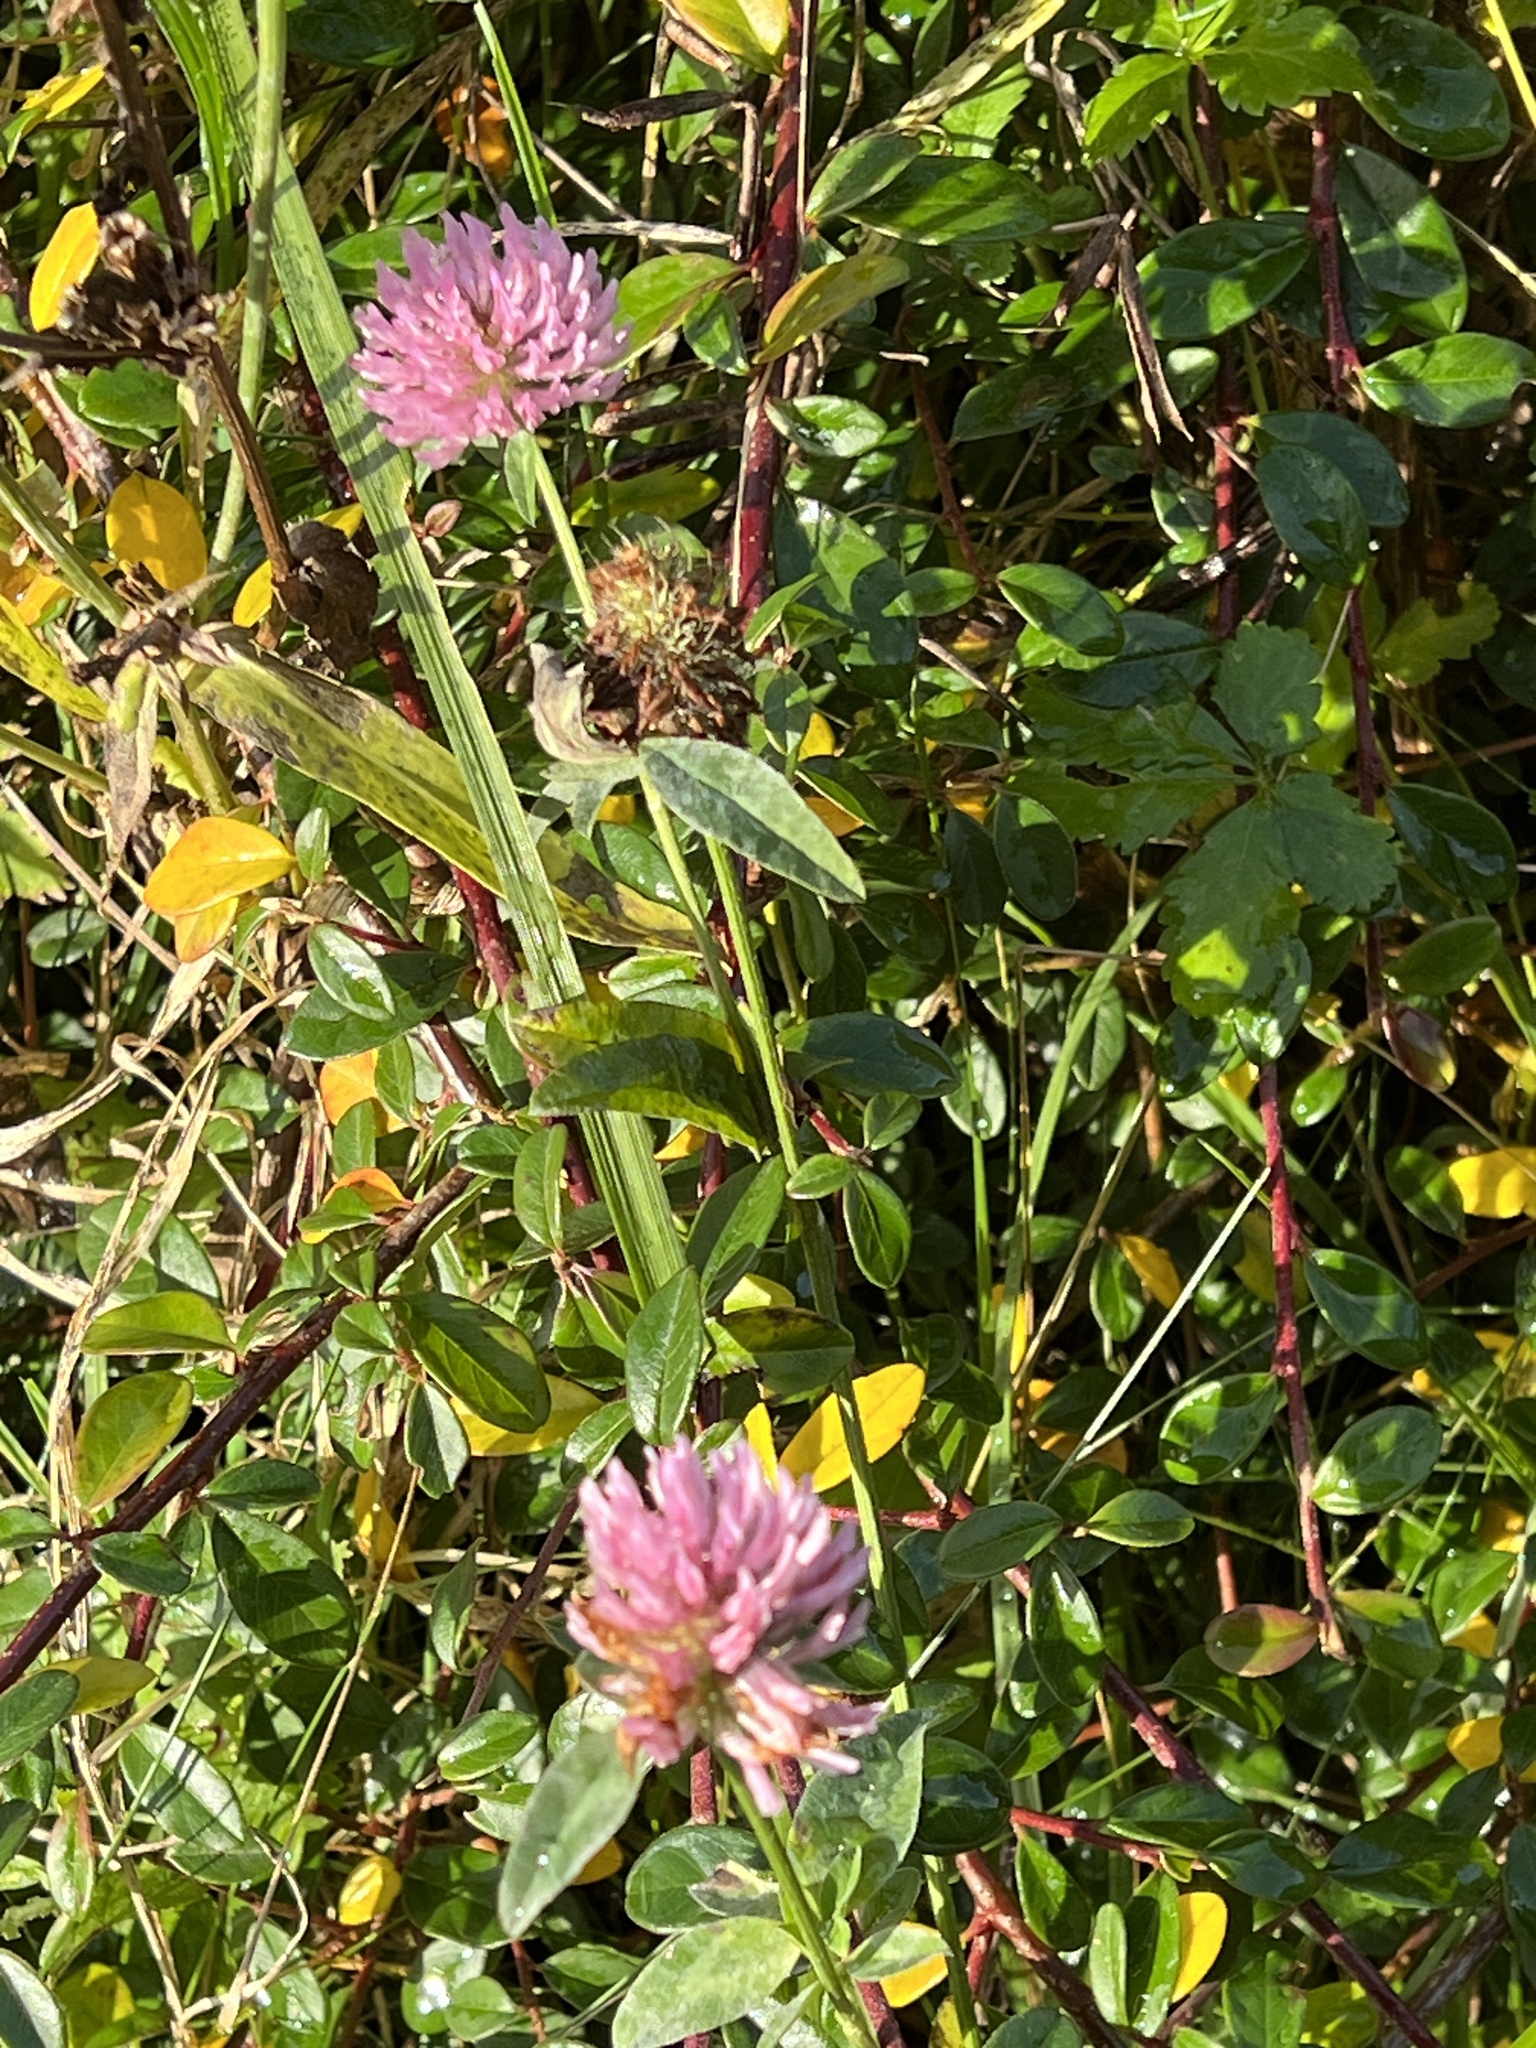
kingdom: Plantae
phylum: Tracheophyta
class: Magnoliopsida
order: Fabales
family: Fabaceae
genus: Trifolium
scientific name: Trifolium pratense
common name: Red clover
